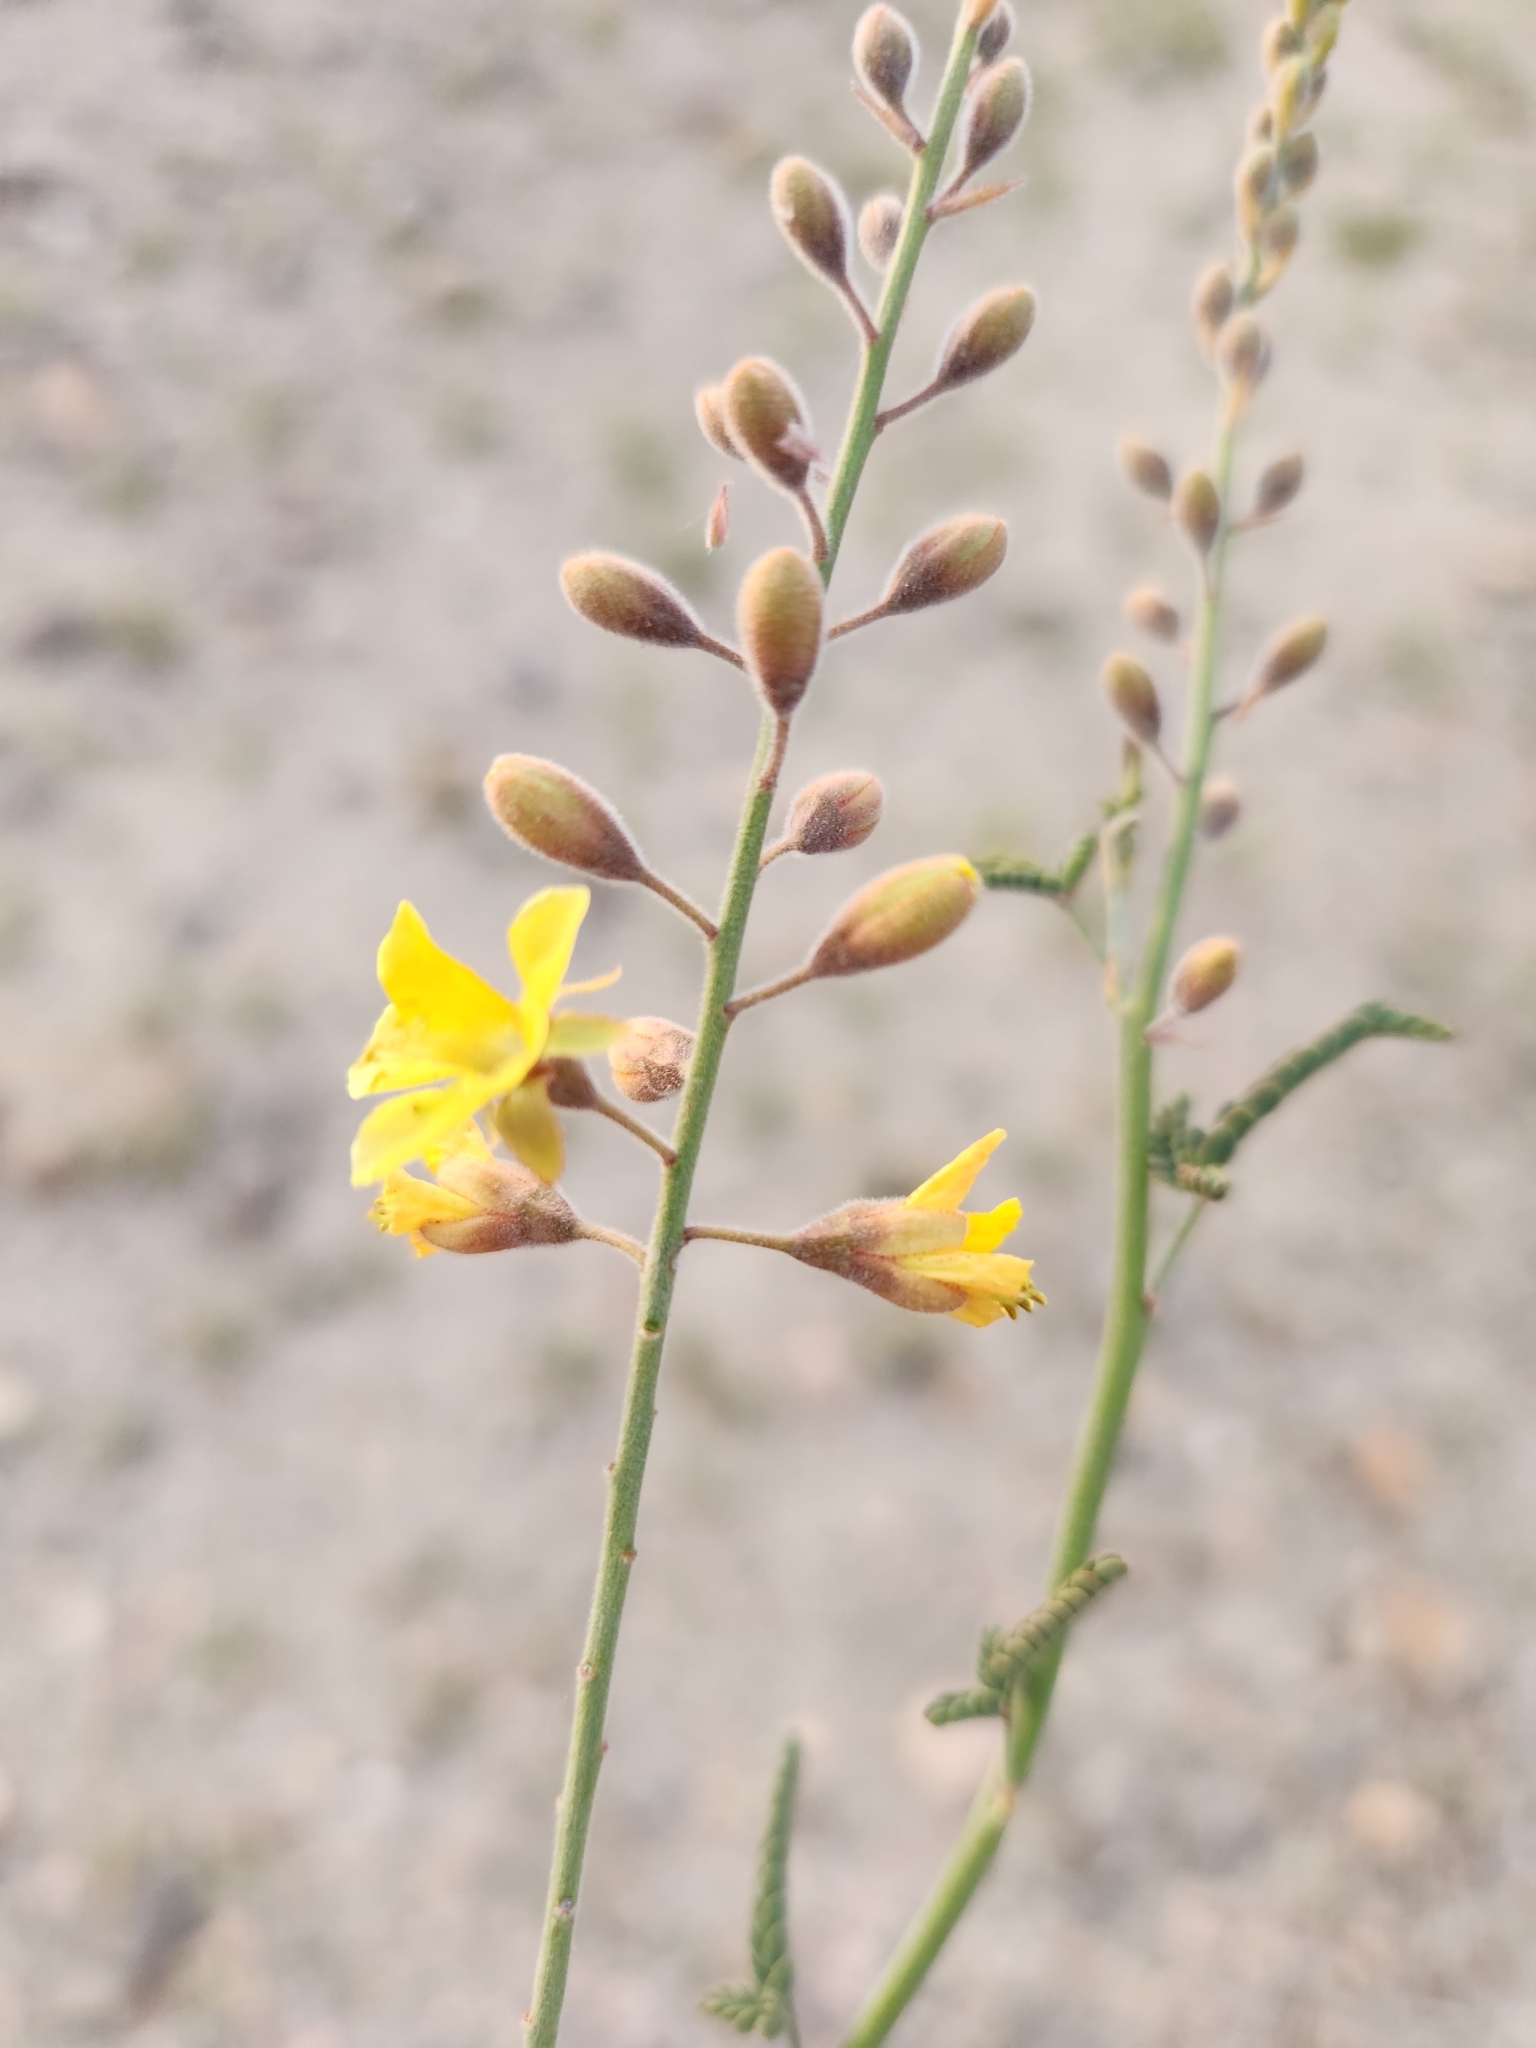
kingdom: Plantae
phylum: Tracheophyta
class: Magnoliopsida
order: Fabales
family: Fabaceae
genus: Hoffmannseggia
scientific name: Hoffmannseggia microphylla
